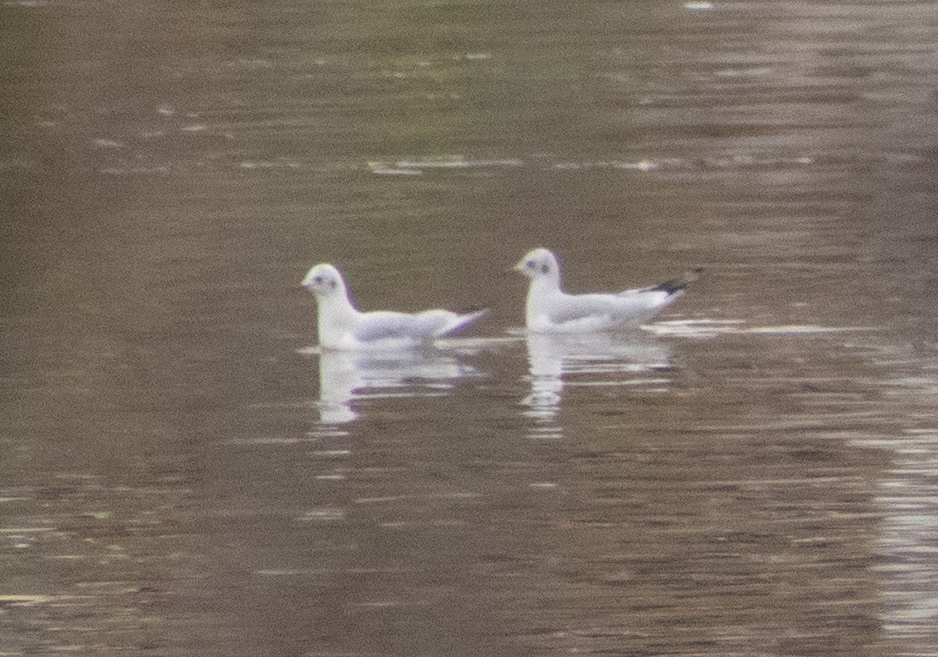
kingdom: Animalia
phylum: Chordata
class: Aves
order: Charadriiformes
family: Laridae
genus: Chroicocephalus
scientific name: Chroicocephalus ridibundus
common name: Black-headed gull
